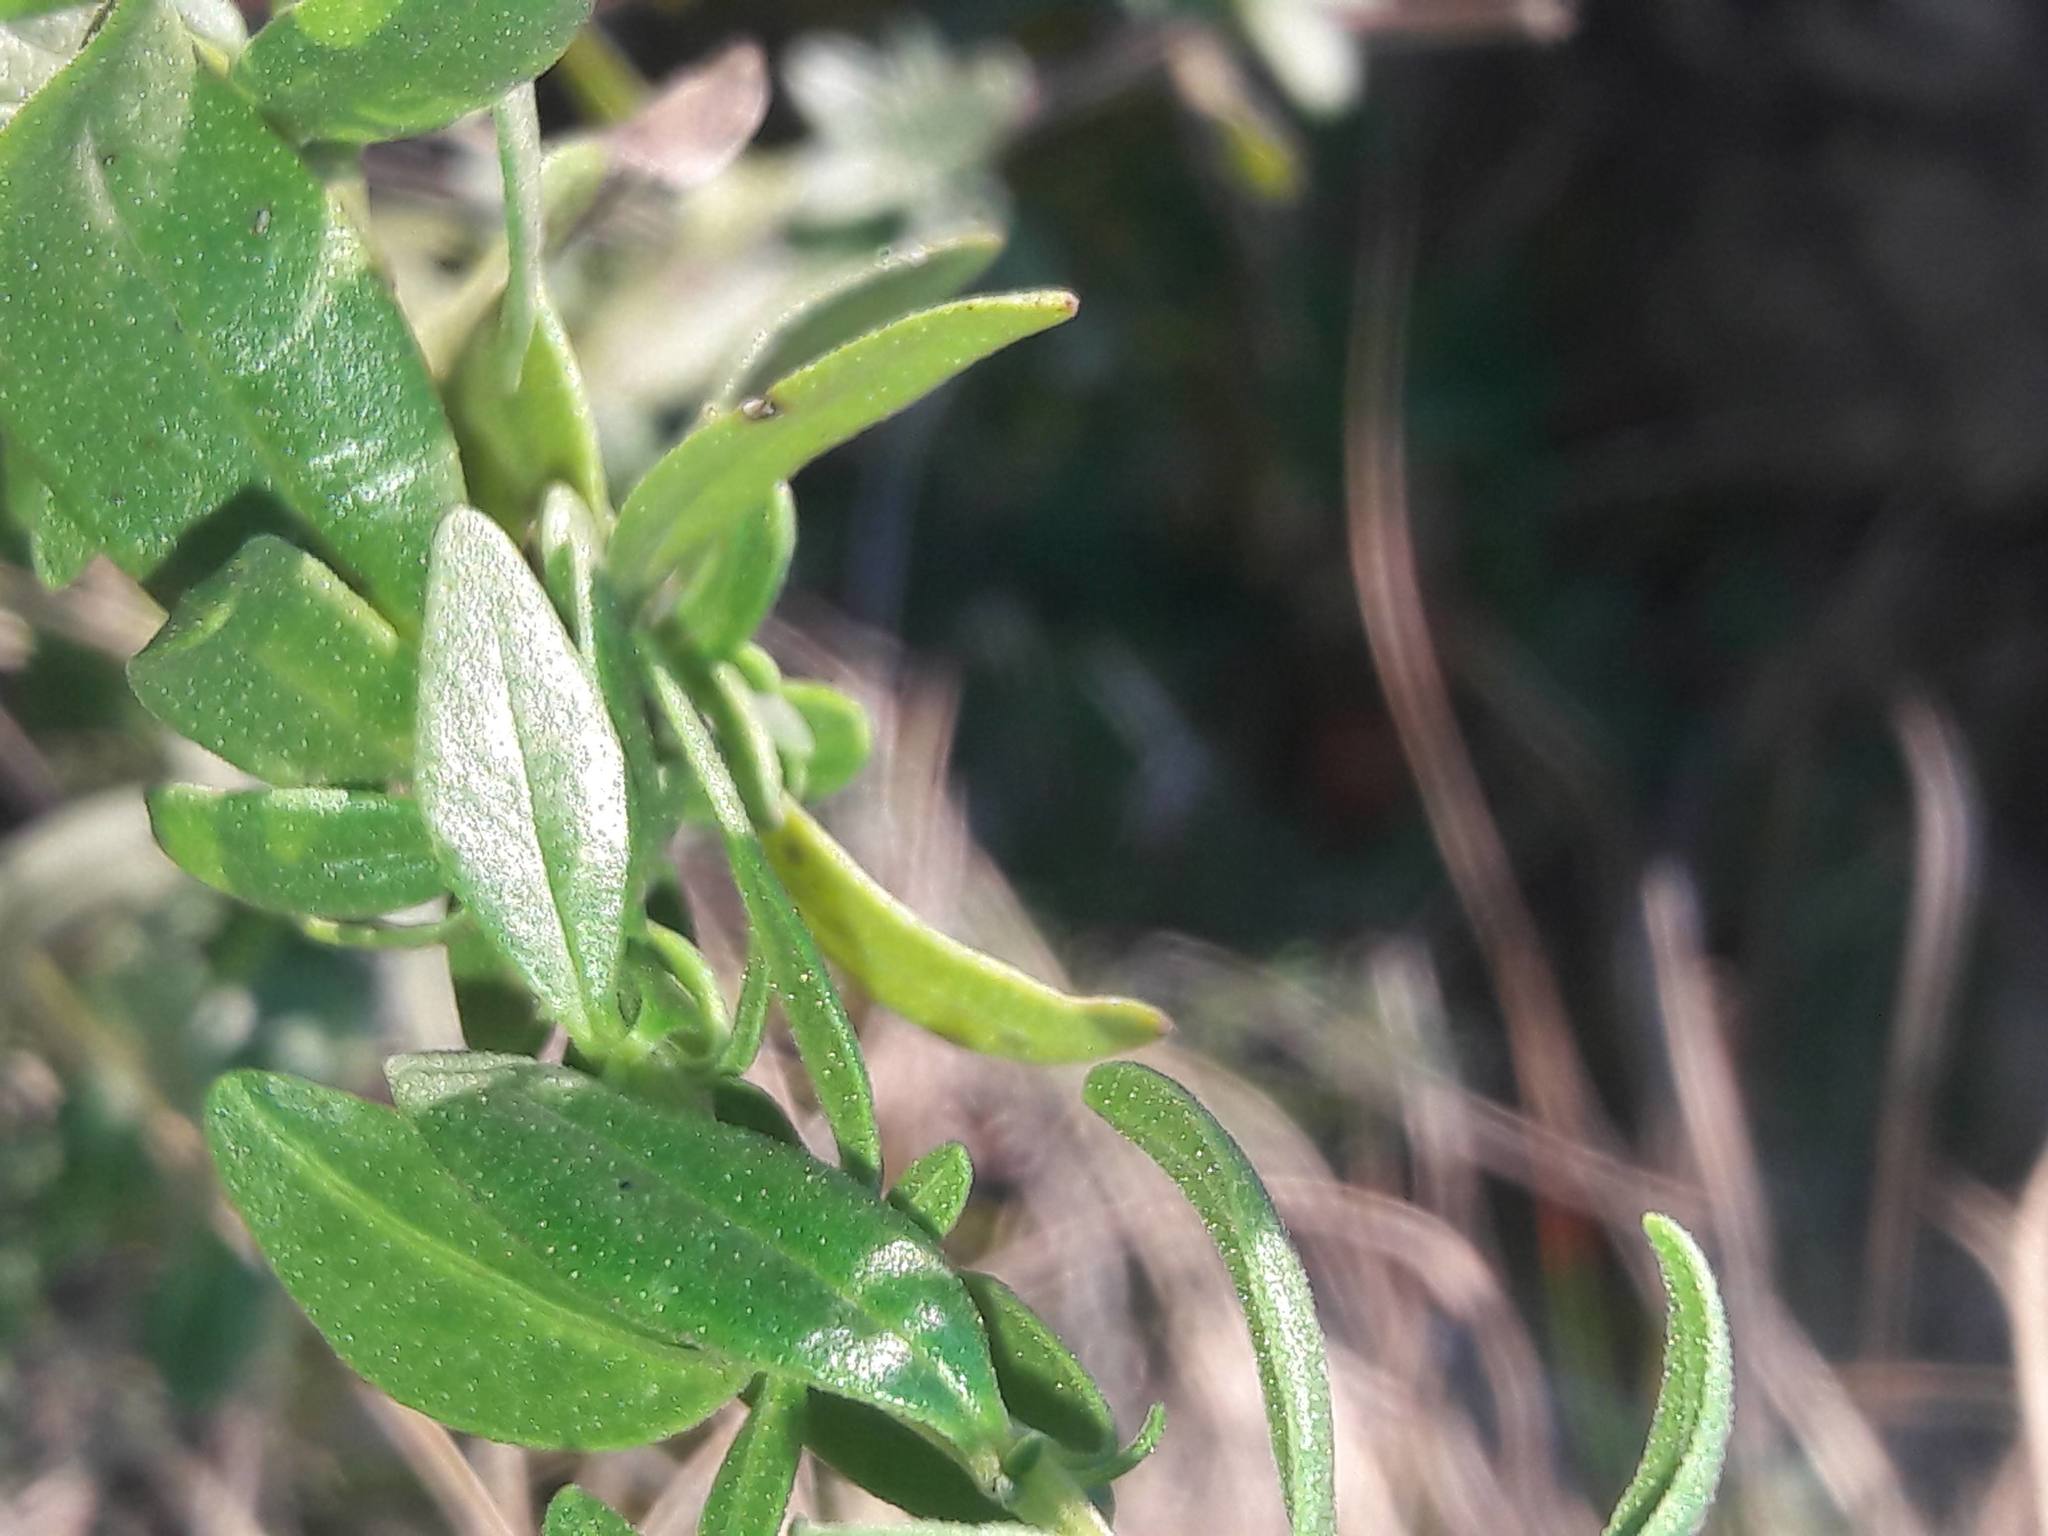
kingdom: Plantae
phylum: Tracheophyta
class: Magnoliopsida
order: Lamiales
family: Lamiaceae
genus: Hyssopus
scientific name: Hyssopus officinalis
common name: Hyssop
